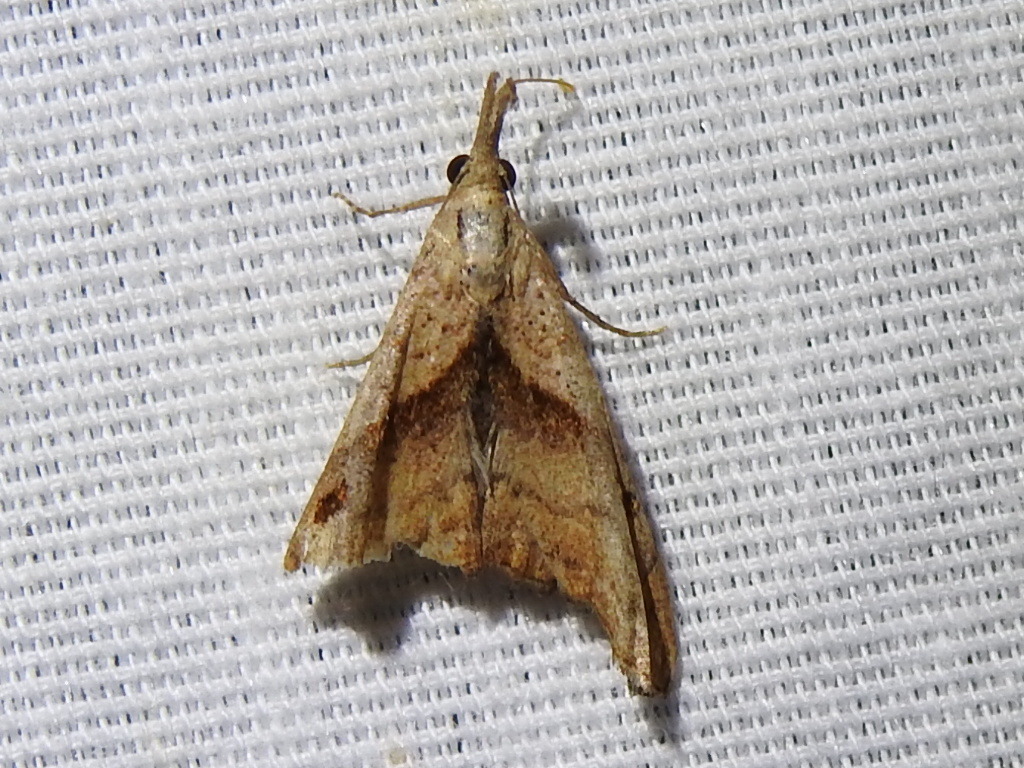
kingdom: Animalia
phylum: Arthropoda
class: Insecta
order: Lepidoptera
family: Erebidae
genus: Palthis
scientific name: Palthis angulalis
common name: Dark-spotted palthis moth
